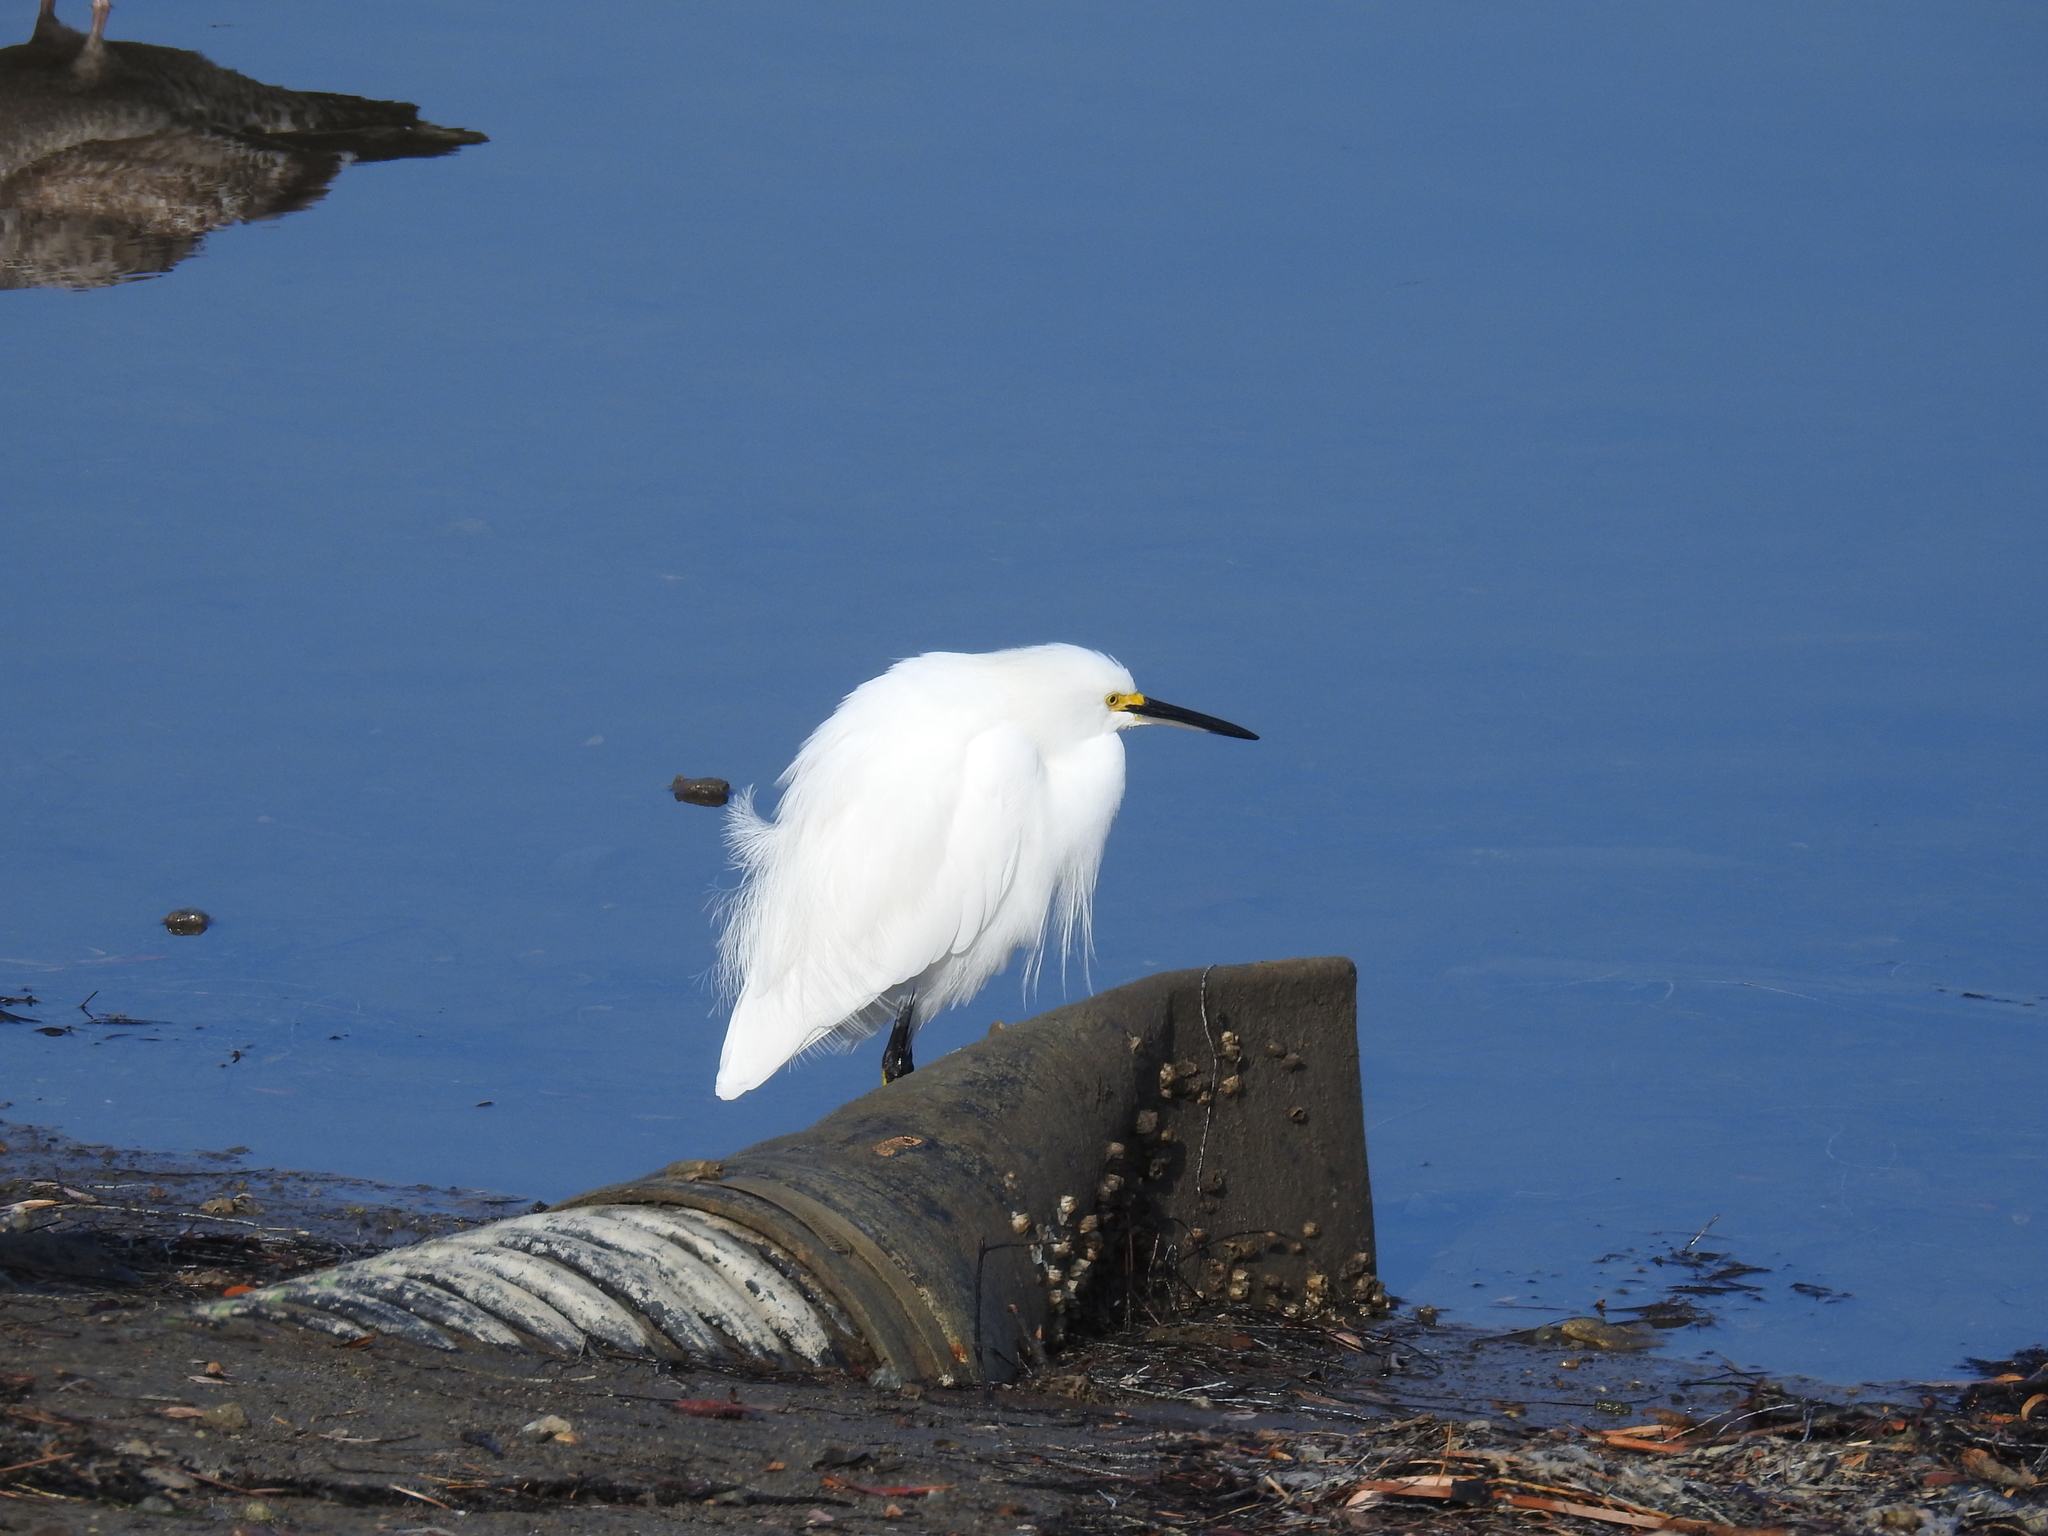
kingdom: Animalia
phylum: Chordata
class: Aves
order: Pelecaniformes
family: Ardeidae
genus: Egretta
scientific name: Egretta thula
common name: Snowy egret
